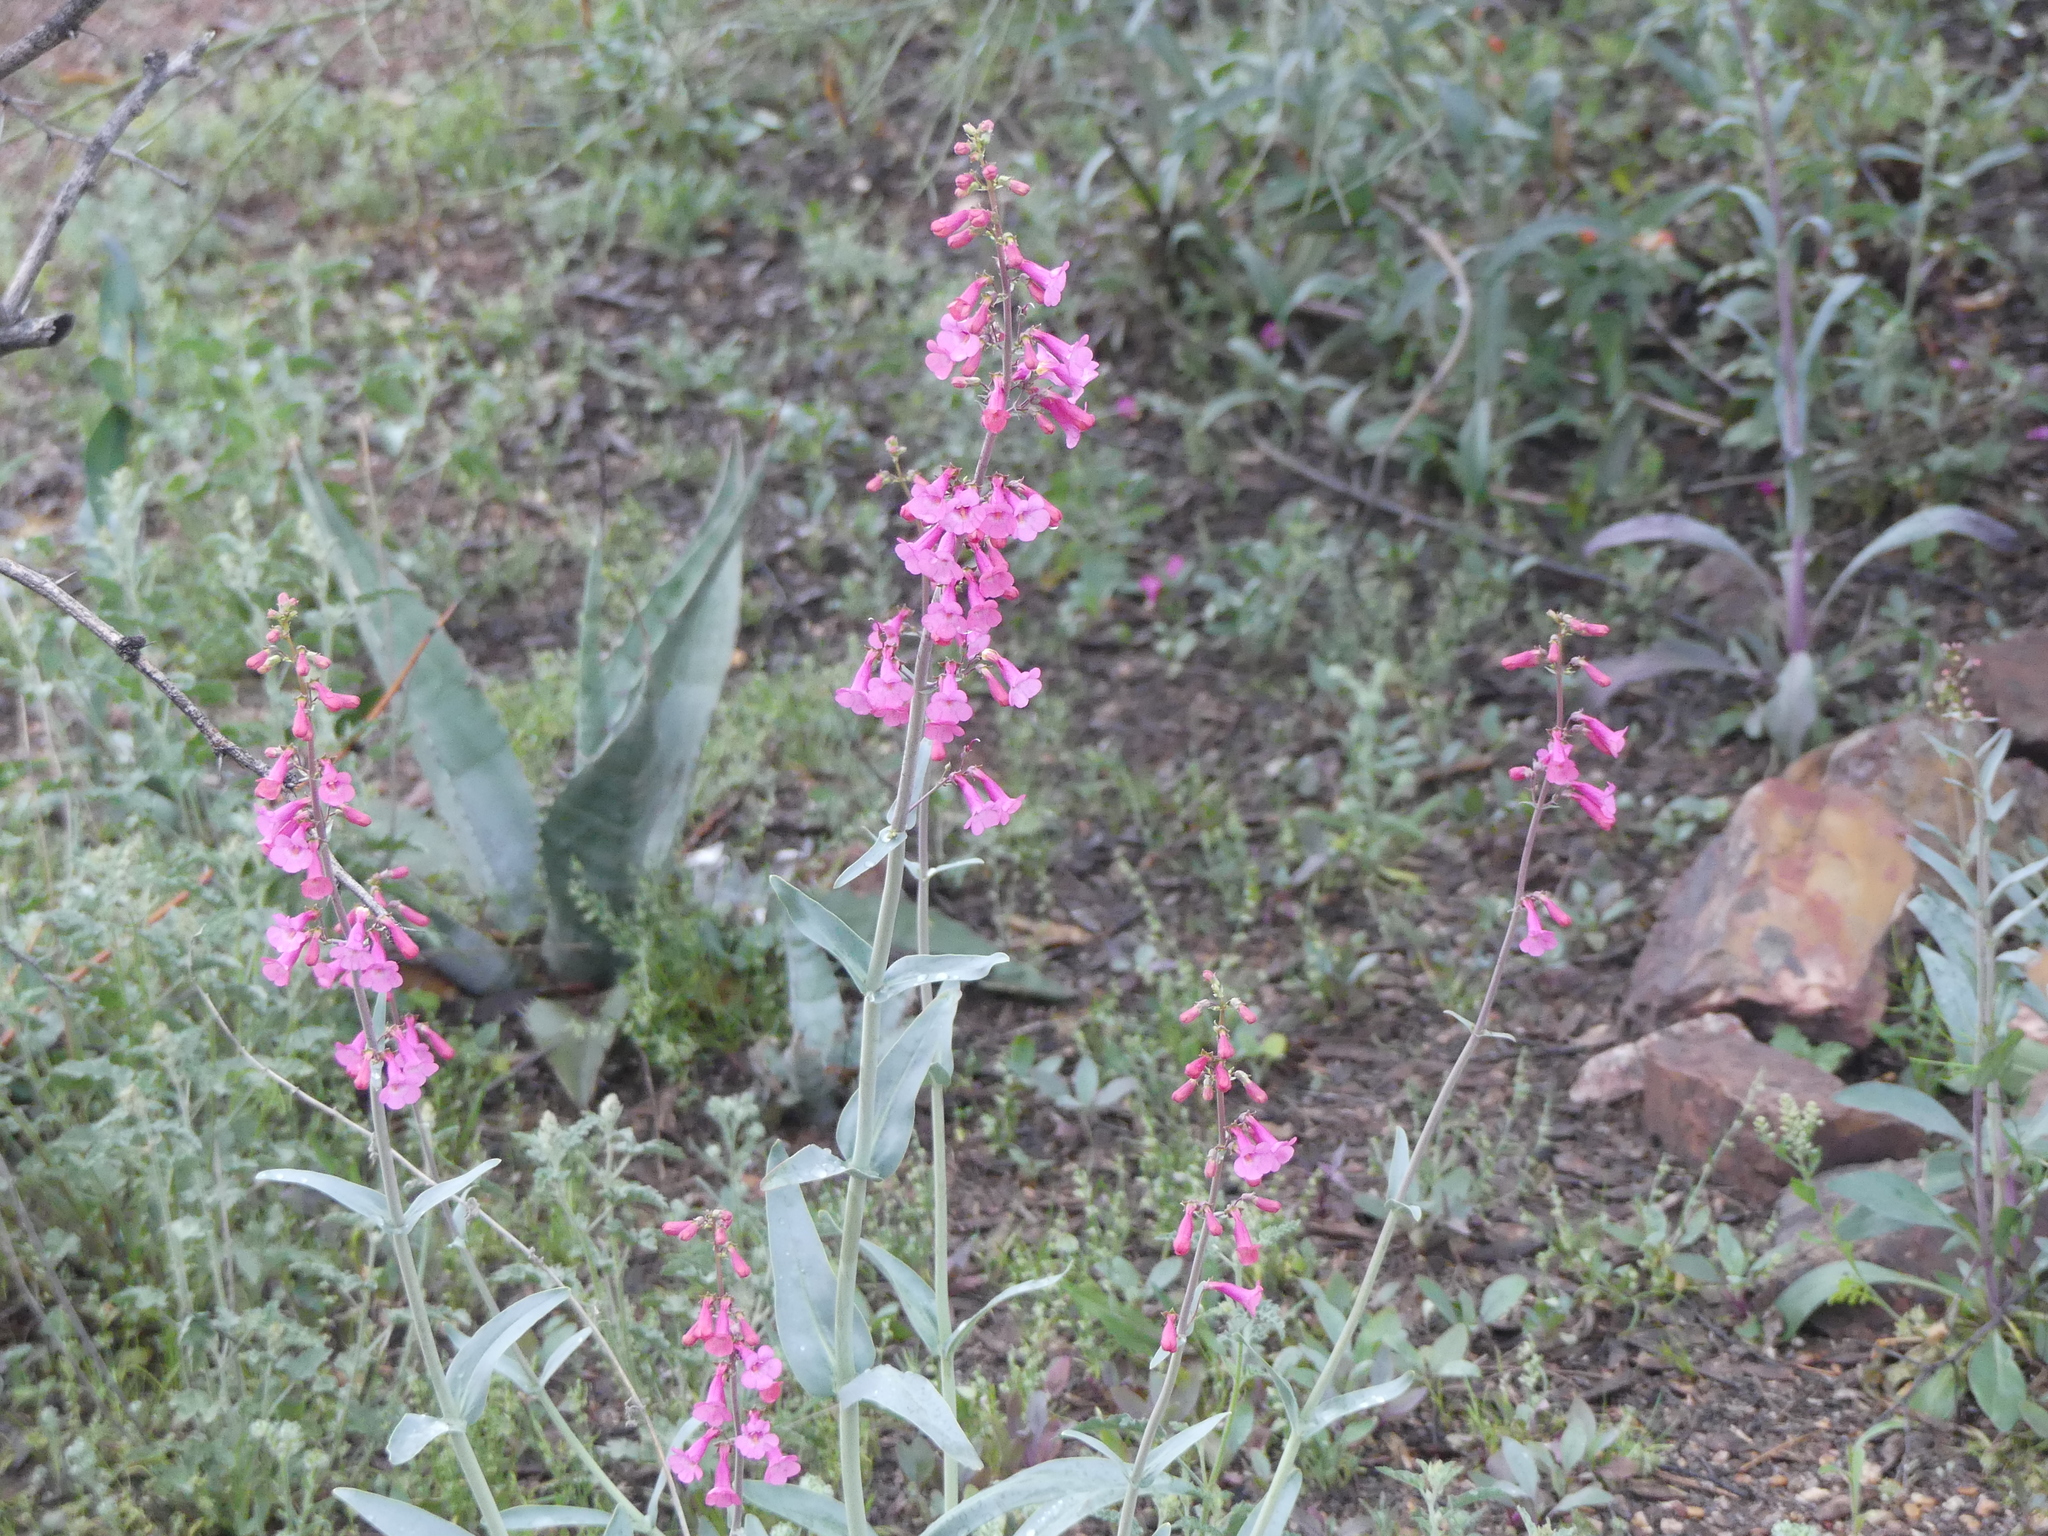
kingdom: Plantae
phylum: Tracheophyta
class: Magnoliopsida
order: Lamiales
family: Plantaginaceae
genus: Penstemon
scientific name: Penstemon parryi
